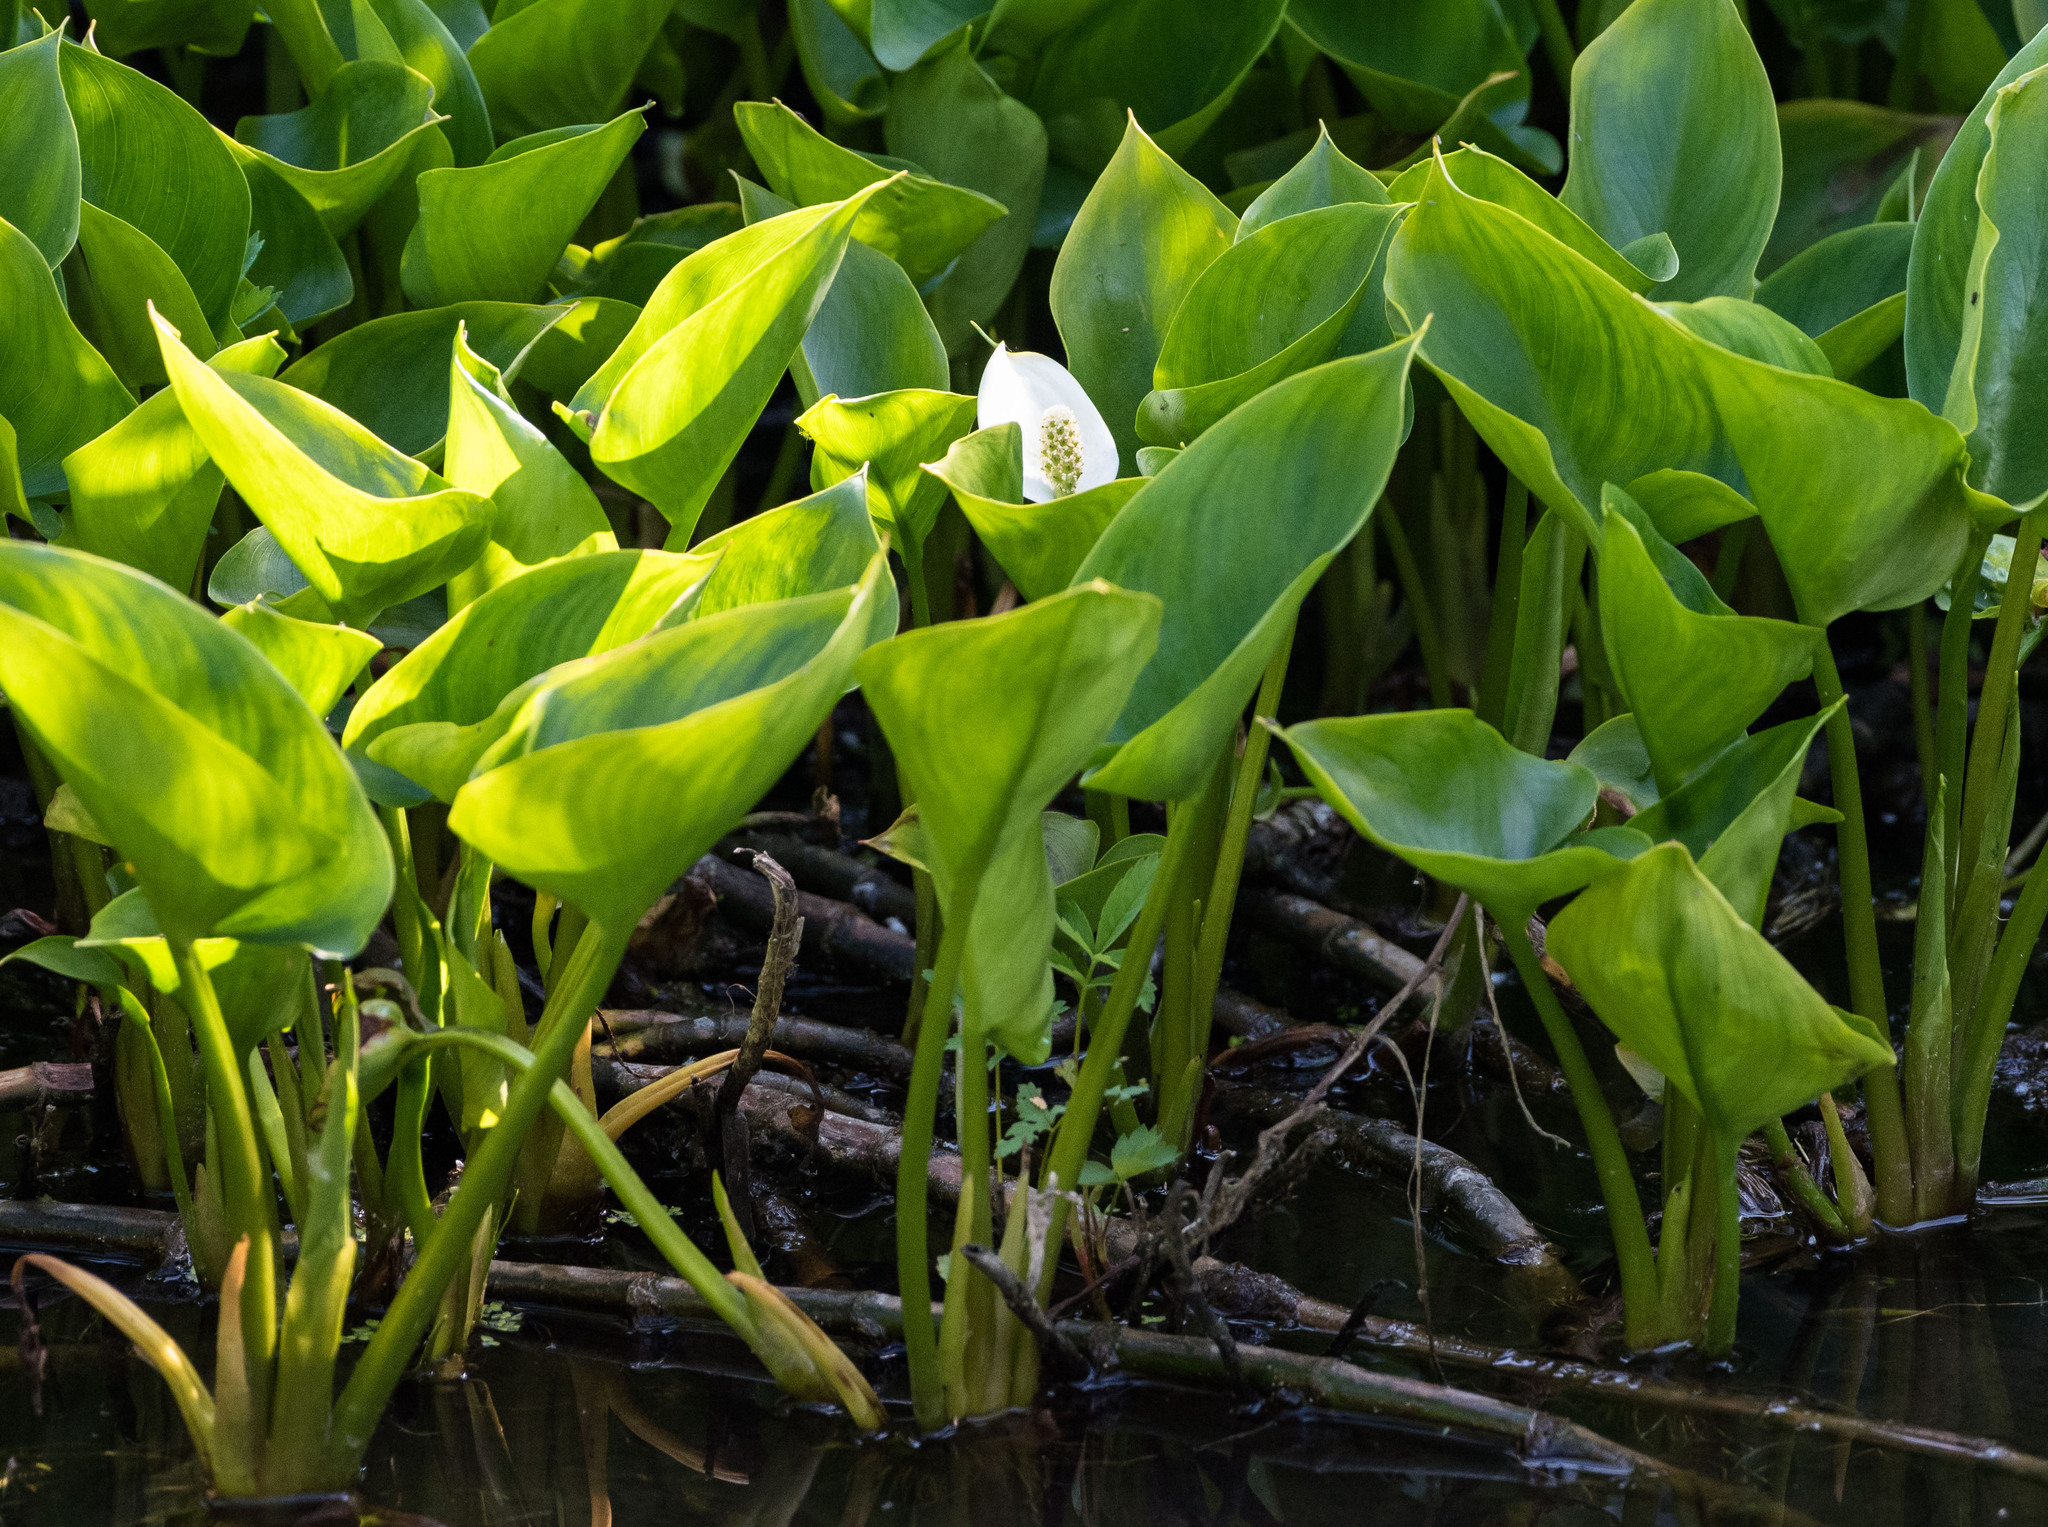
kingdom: Plantae
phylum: Tracheophyta
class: Liliopsida
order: Alismatales
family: Araceae
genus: Calla
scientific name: Calla palustris
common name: Bog arum
